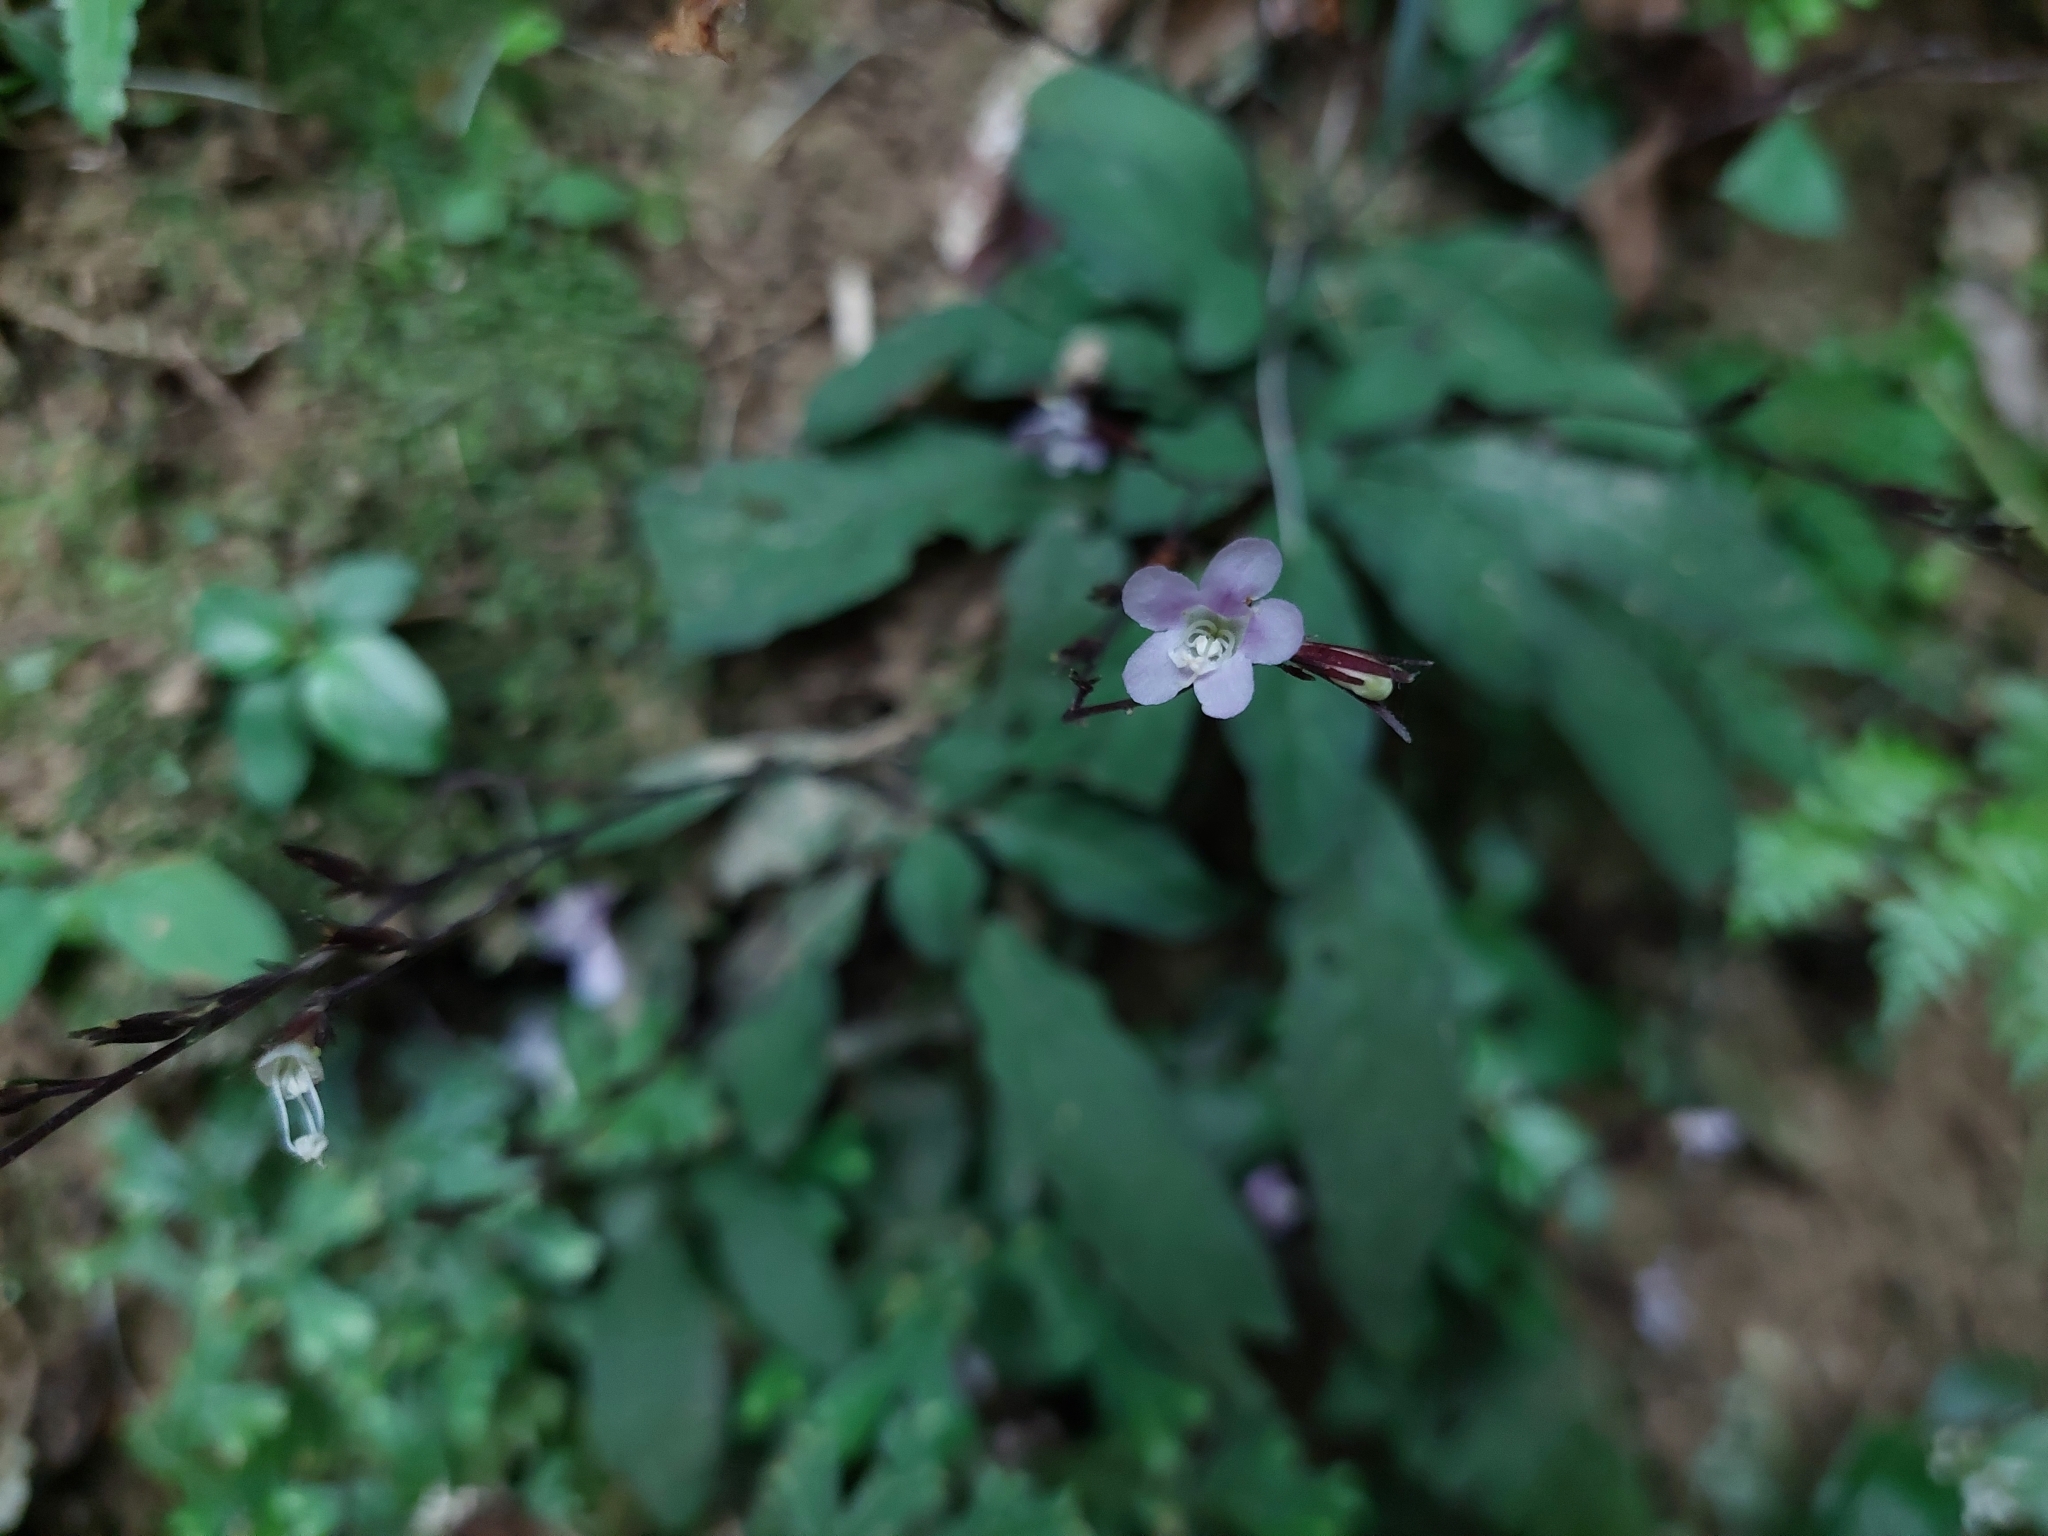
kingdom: Plantae
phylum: Tracheophyta
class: Magnoliopsida
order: Lamiales
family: Acanthaceae
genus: Staurogyne
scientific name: Staurogyne concinnula
